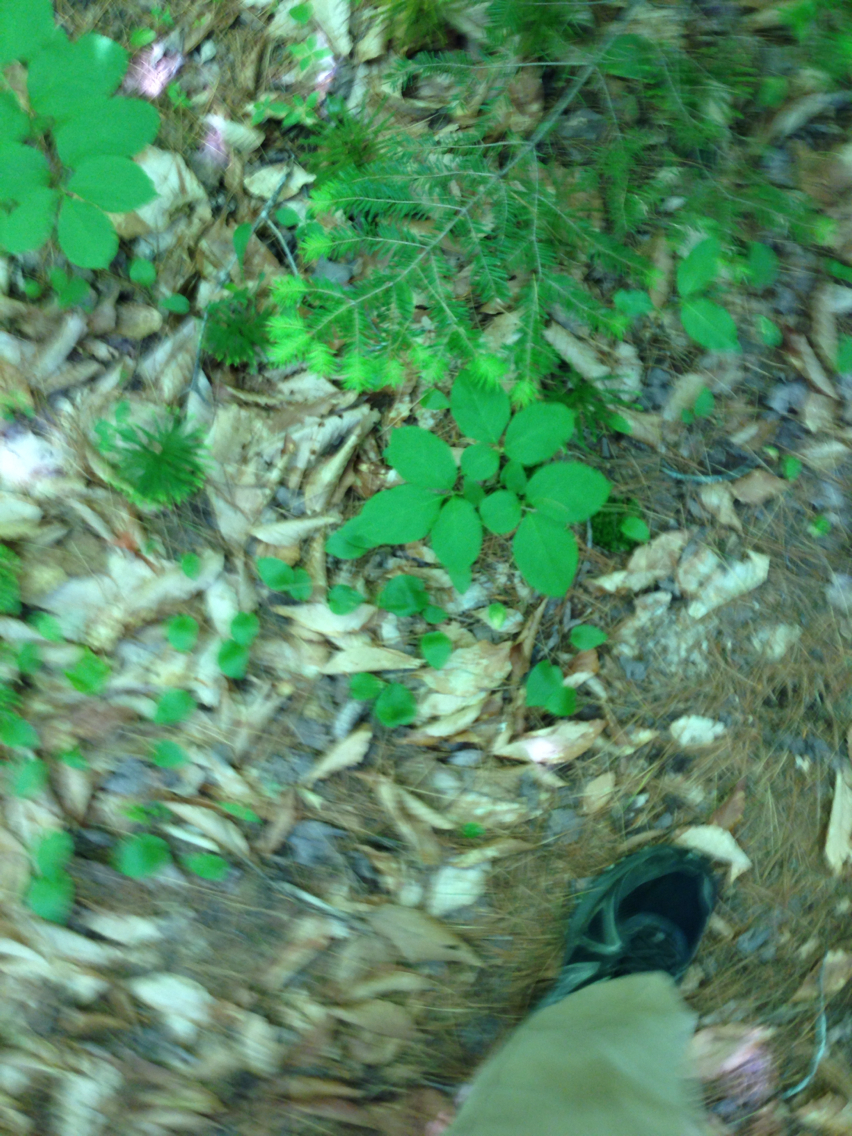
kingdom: Plantae
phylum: Tracheophyta
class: Magnoliopsida
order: Apiales
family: Araliaceae
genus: Aralia
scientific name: Aralia nudicaulis
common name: Wild sarsaparilla
